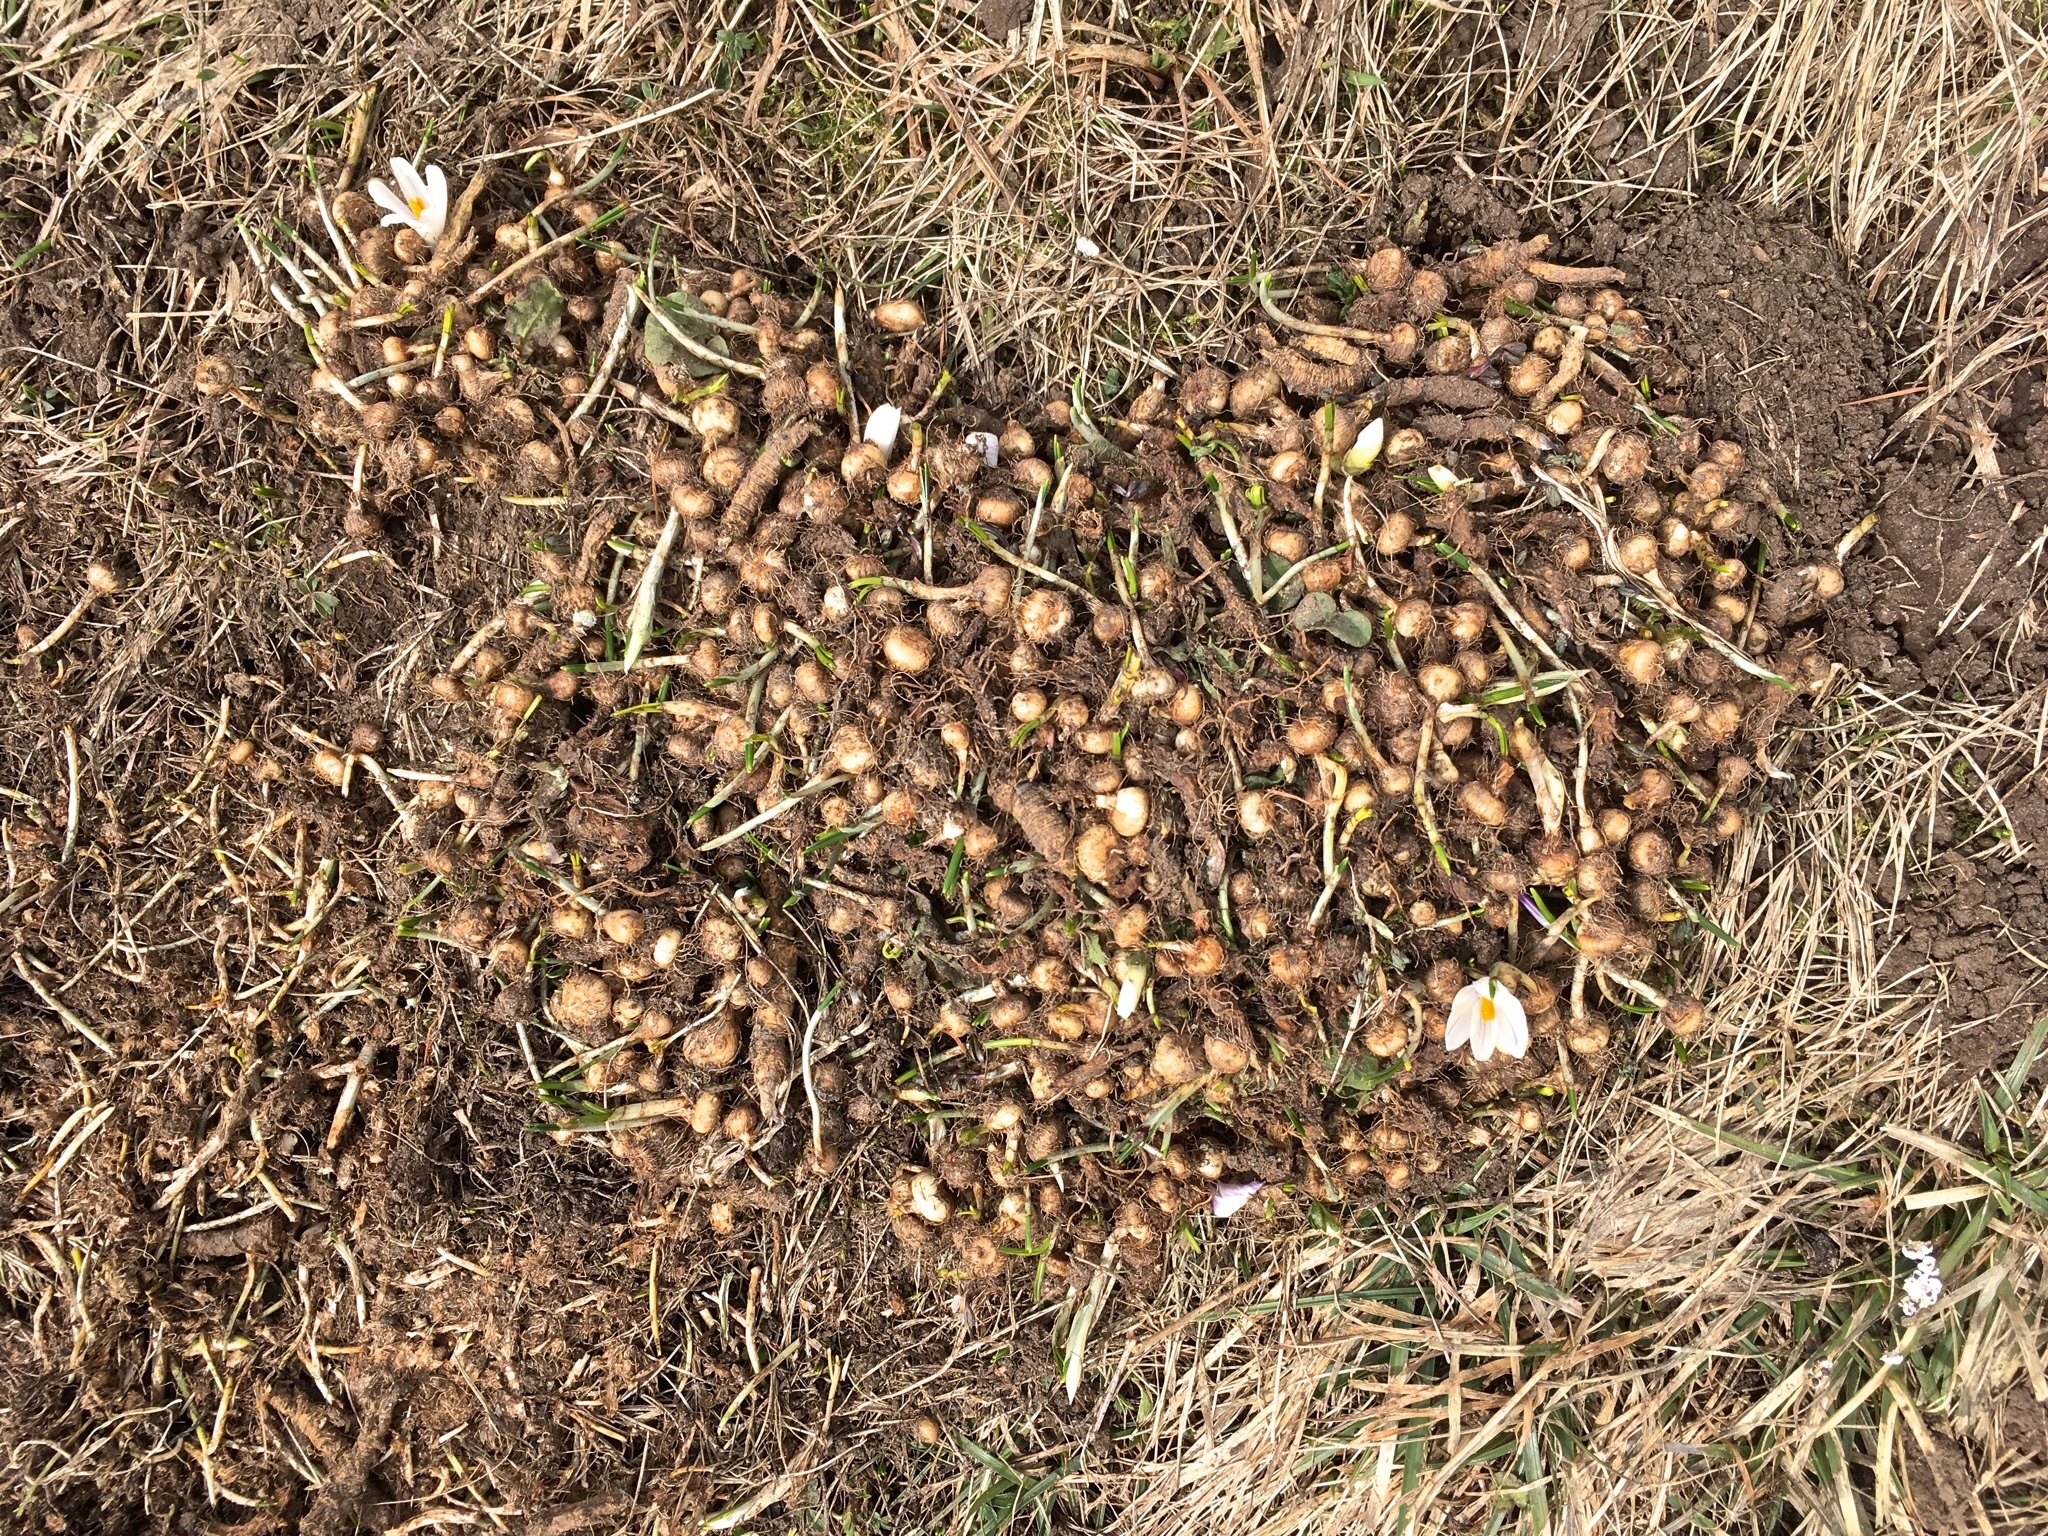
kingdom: Plantae
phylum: Tracheophyta
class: Liliopsida
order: Asparagales
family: Iridaceae
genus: Crocus
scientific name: Crocus vernus
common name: Spring crocus
